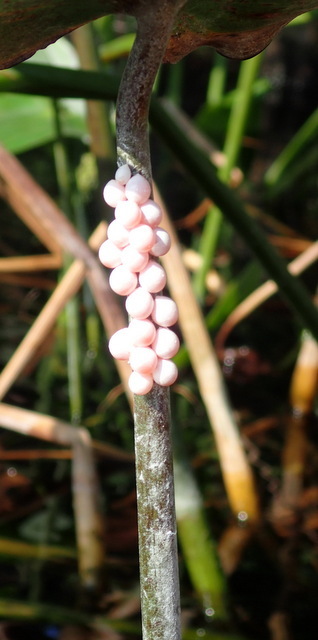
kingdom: Animalia
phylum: Mollusca
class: Gastropoda
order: Architaenioglossa
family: Ampullariidae
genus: Pomacea
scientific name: Pomacea paludosa
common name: Florida applesnail
